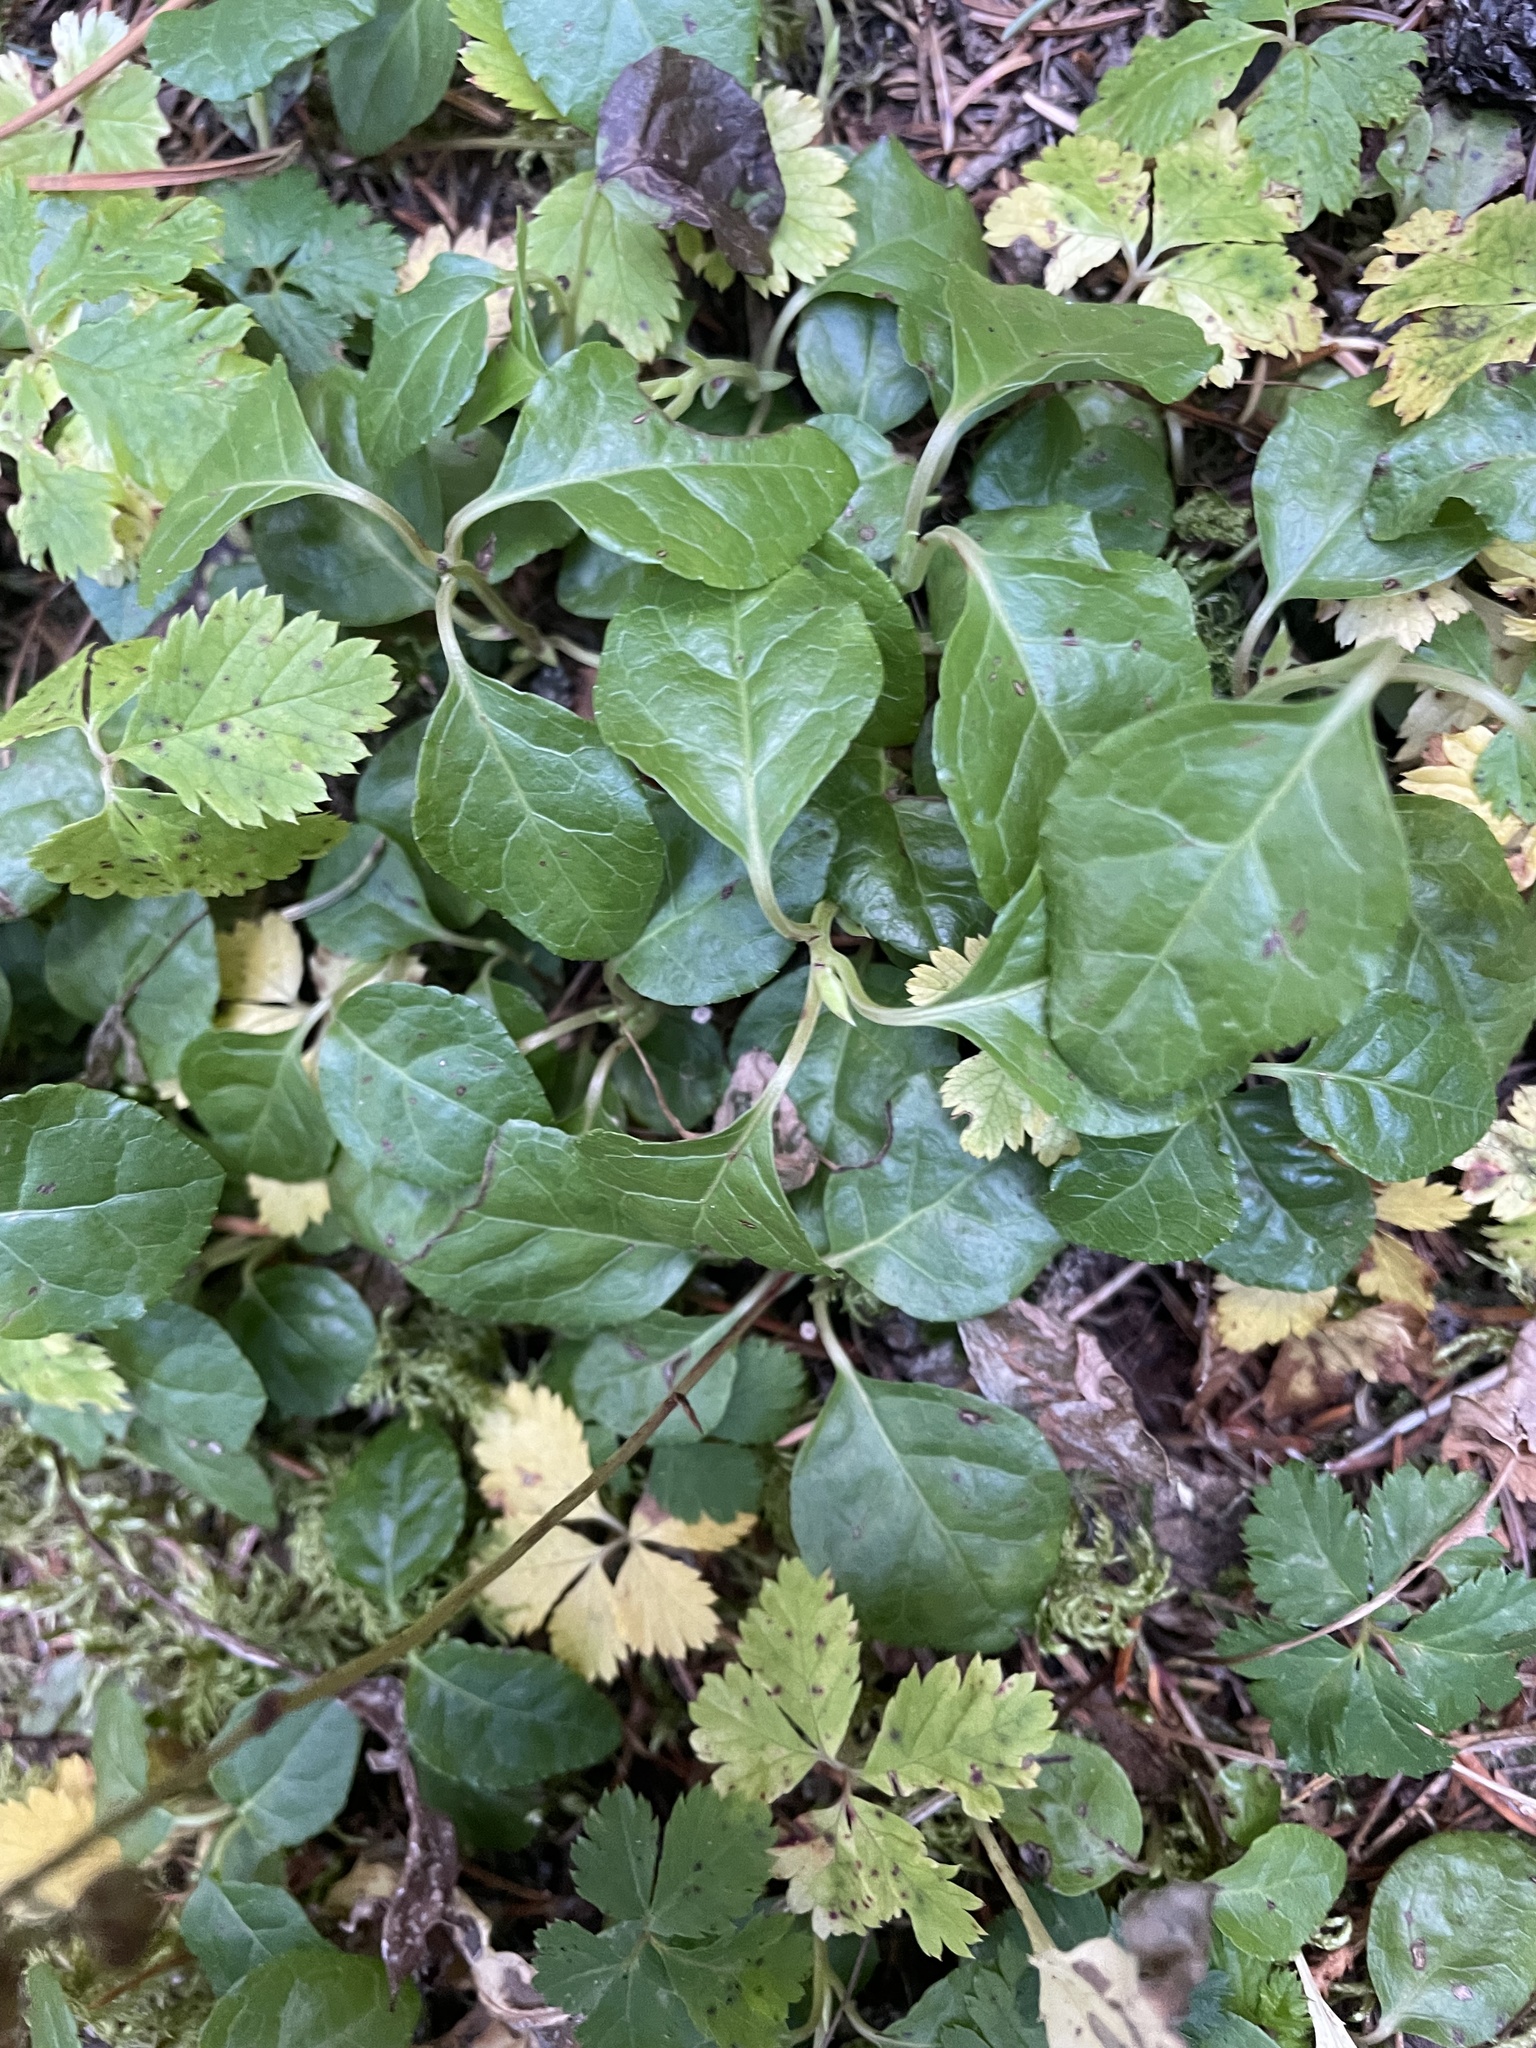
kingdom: Plantae
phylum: Tracheophyta
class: Magnoliopsida
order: Ericales
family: Ericaceae
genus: Orthilia
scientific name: Orthilia secunda
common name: One-sided orthilia
